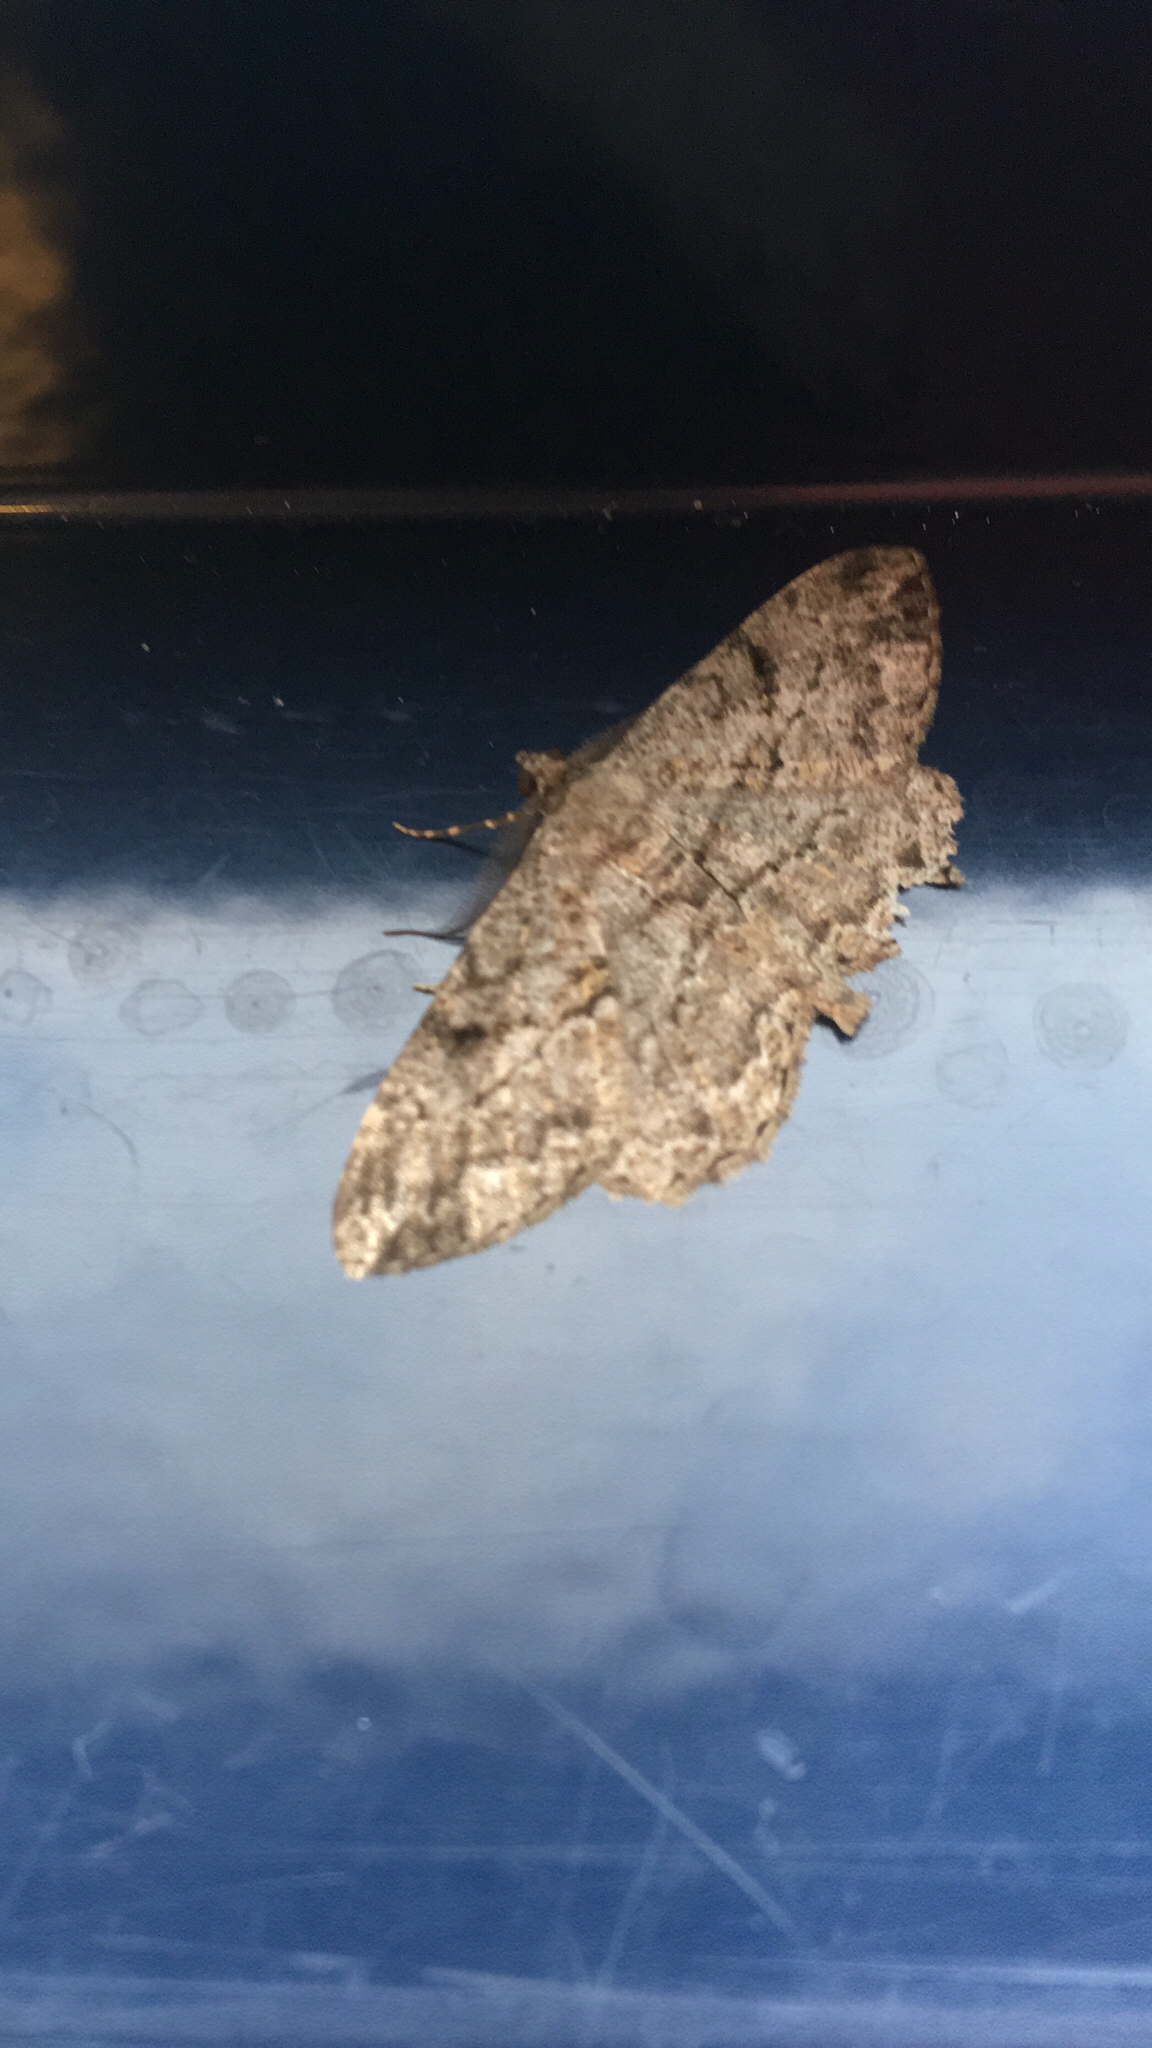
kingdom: Animalia
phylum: Arthropoda
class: Insecta
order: Lepidoptera
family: Geometridae
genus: Peribatodes
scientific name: Peribatodes rhomboidaria
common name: Willow beauty
